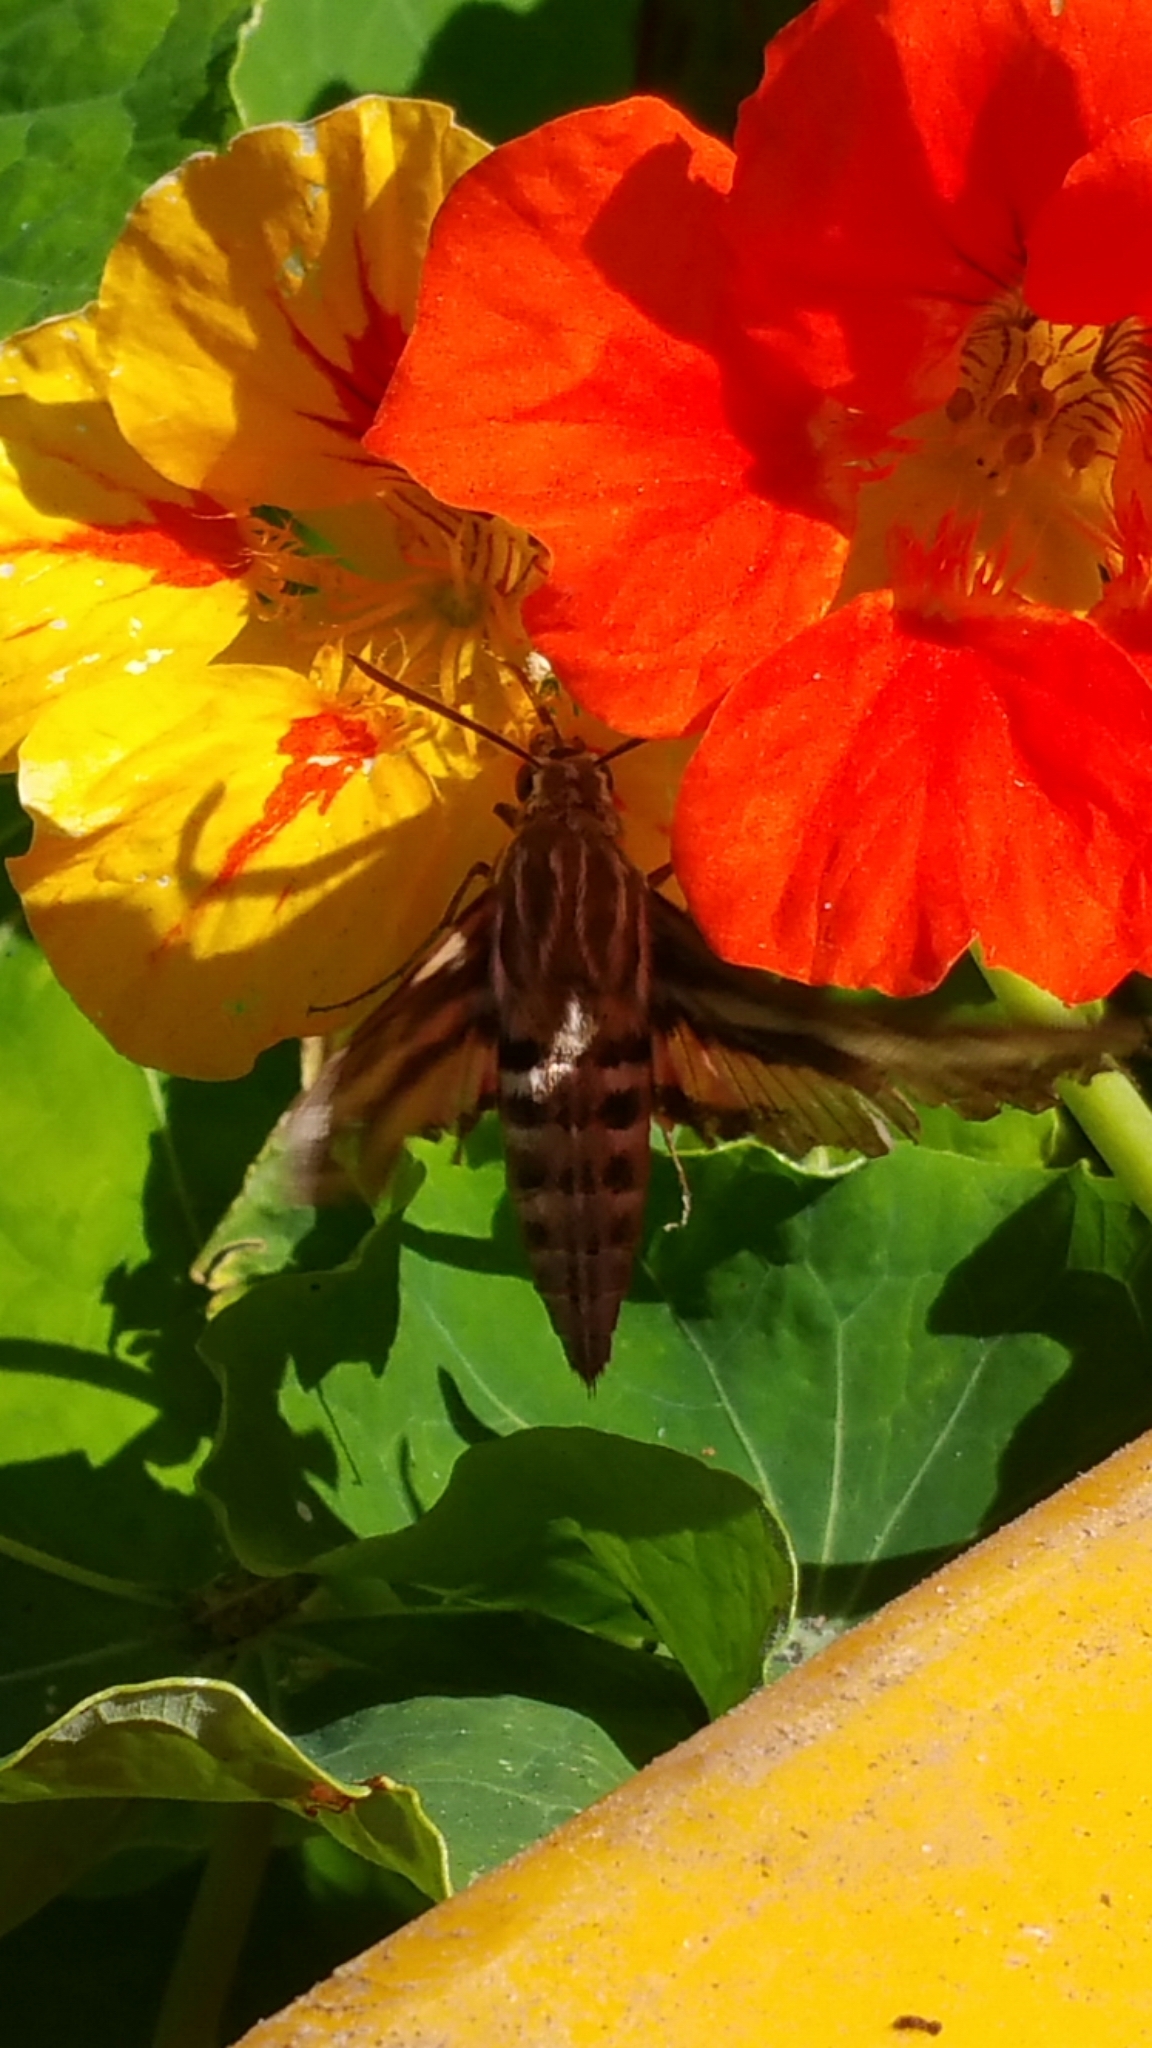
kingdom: Animalia
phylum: Arthropoda
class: Insecta
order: Lepidoptera
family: Sphingidae
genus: Hyles
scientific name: Hyles lineata
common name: White-lined sphinx
